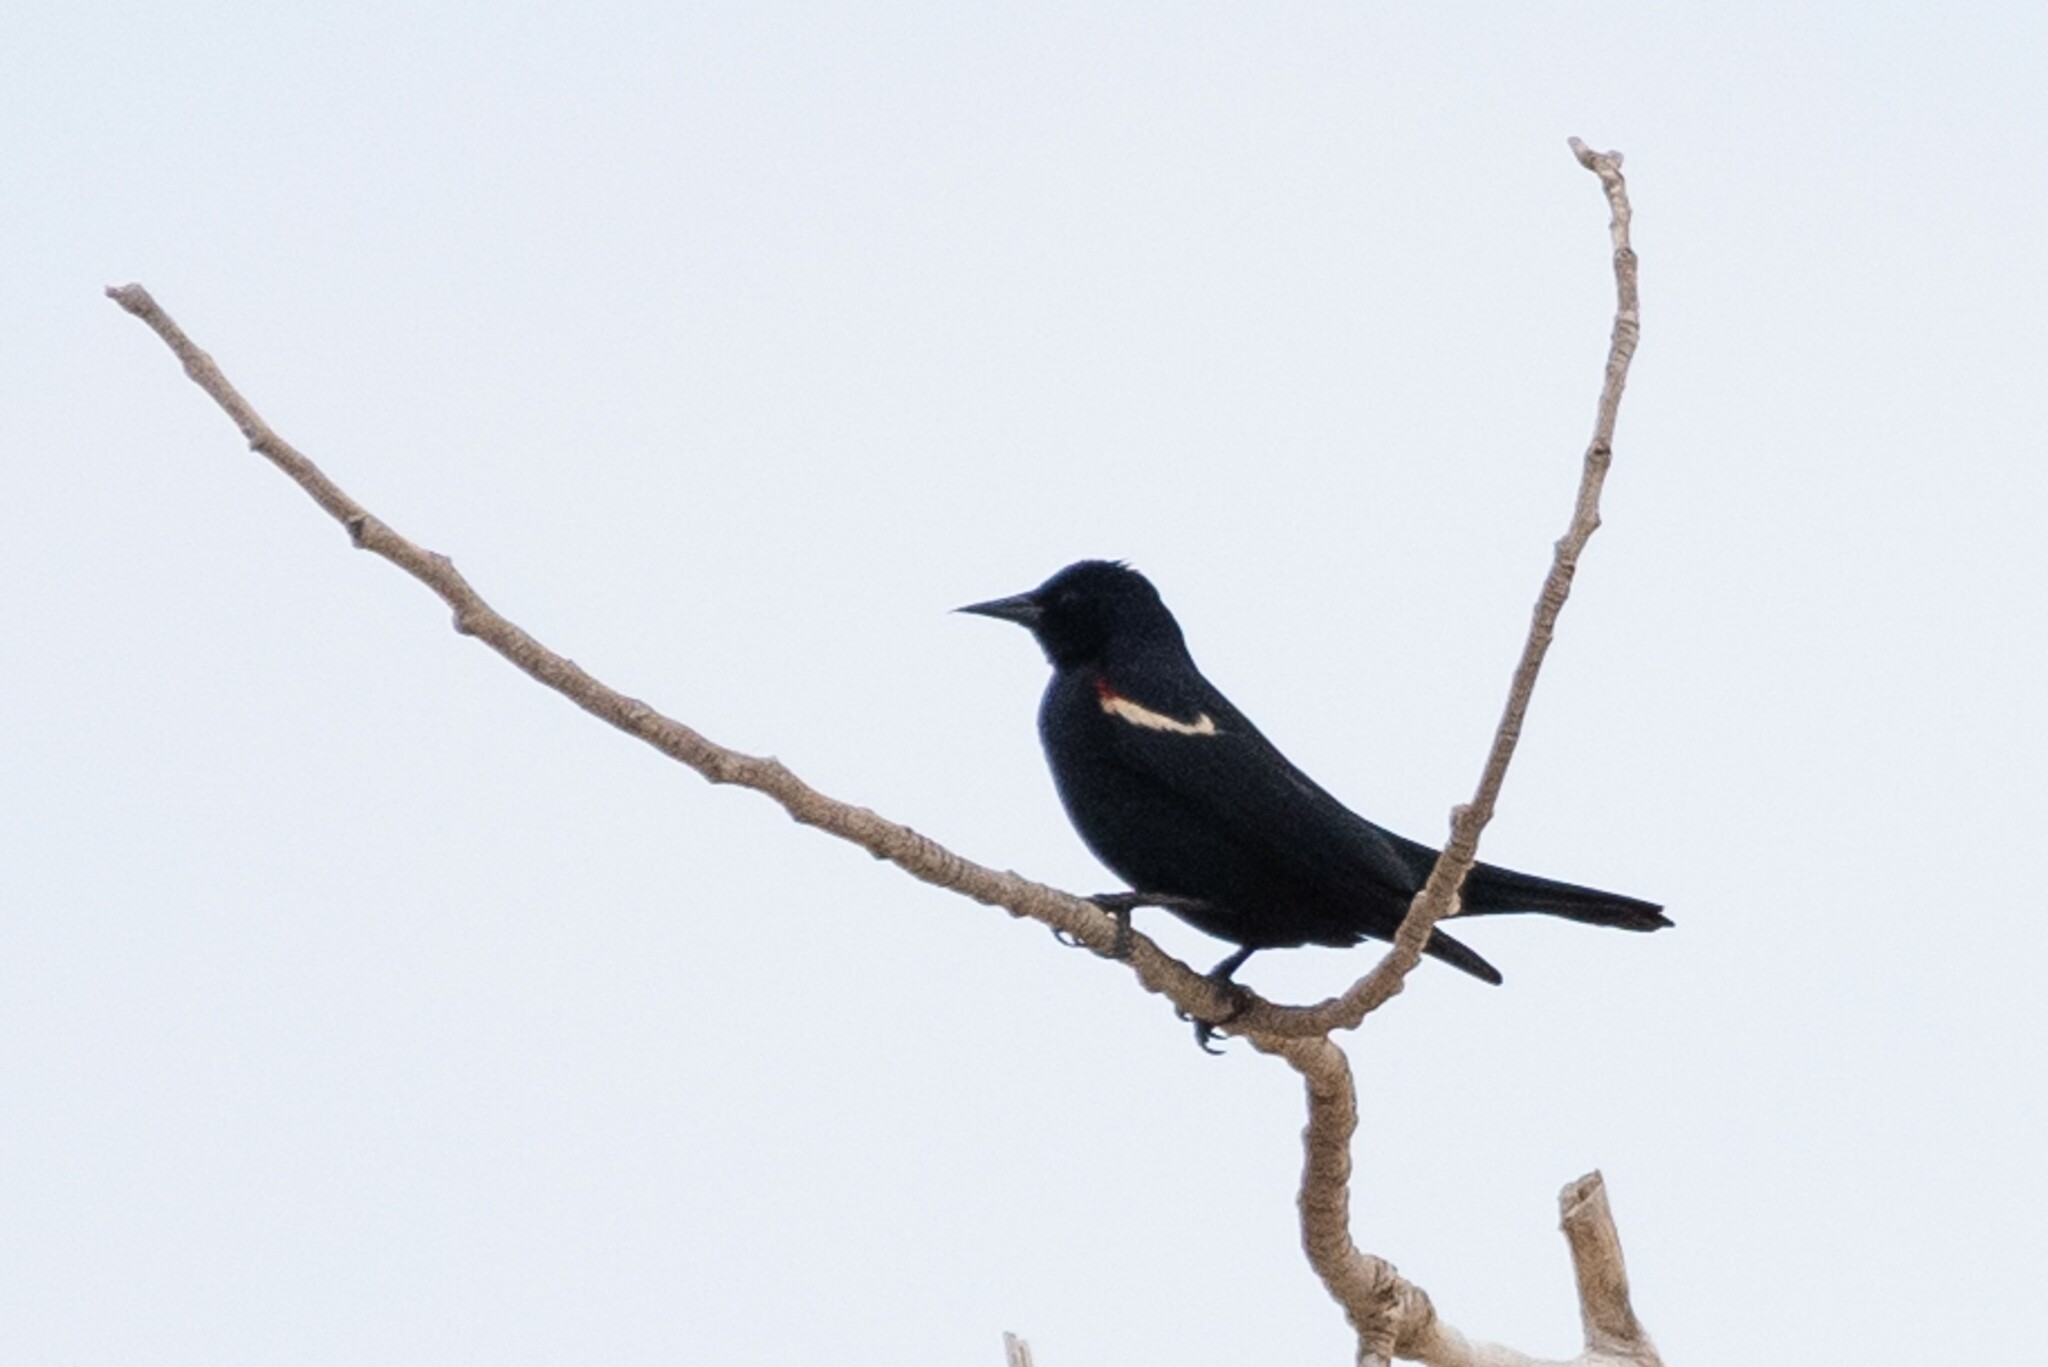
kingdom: Animalia
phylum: Chordata
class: Aves
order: Passeriformes
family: Icteridae
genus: Agelaius
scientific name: Agelaius tricolor
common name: Tricolored blackbird
